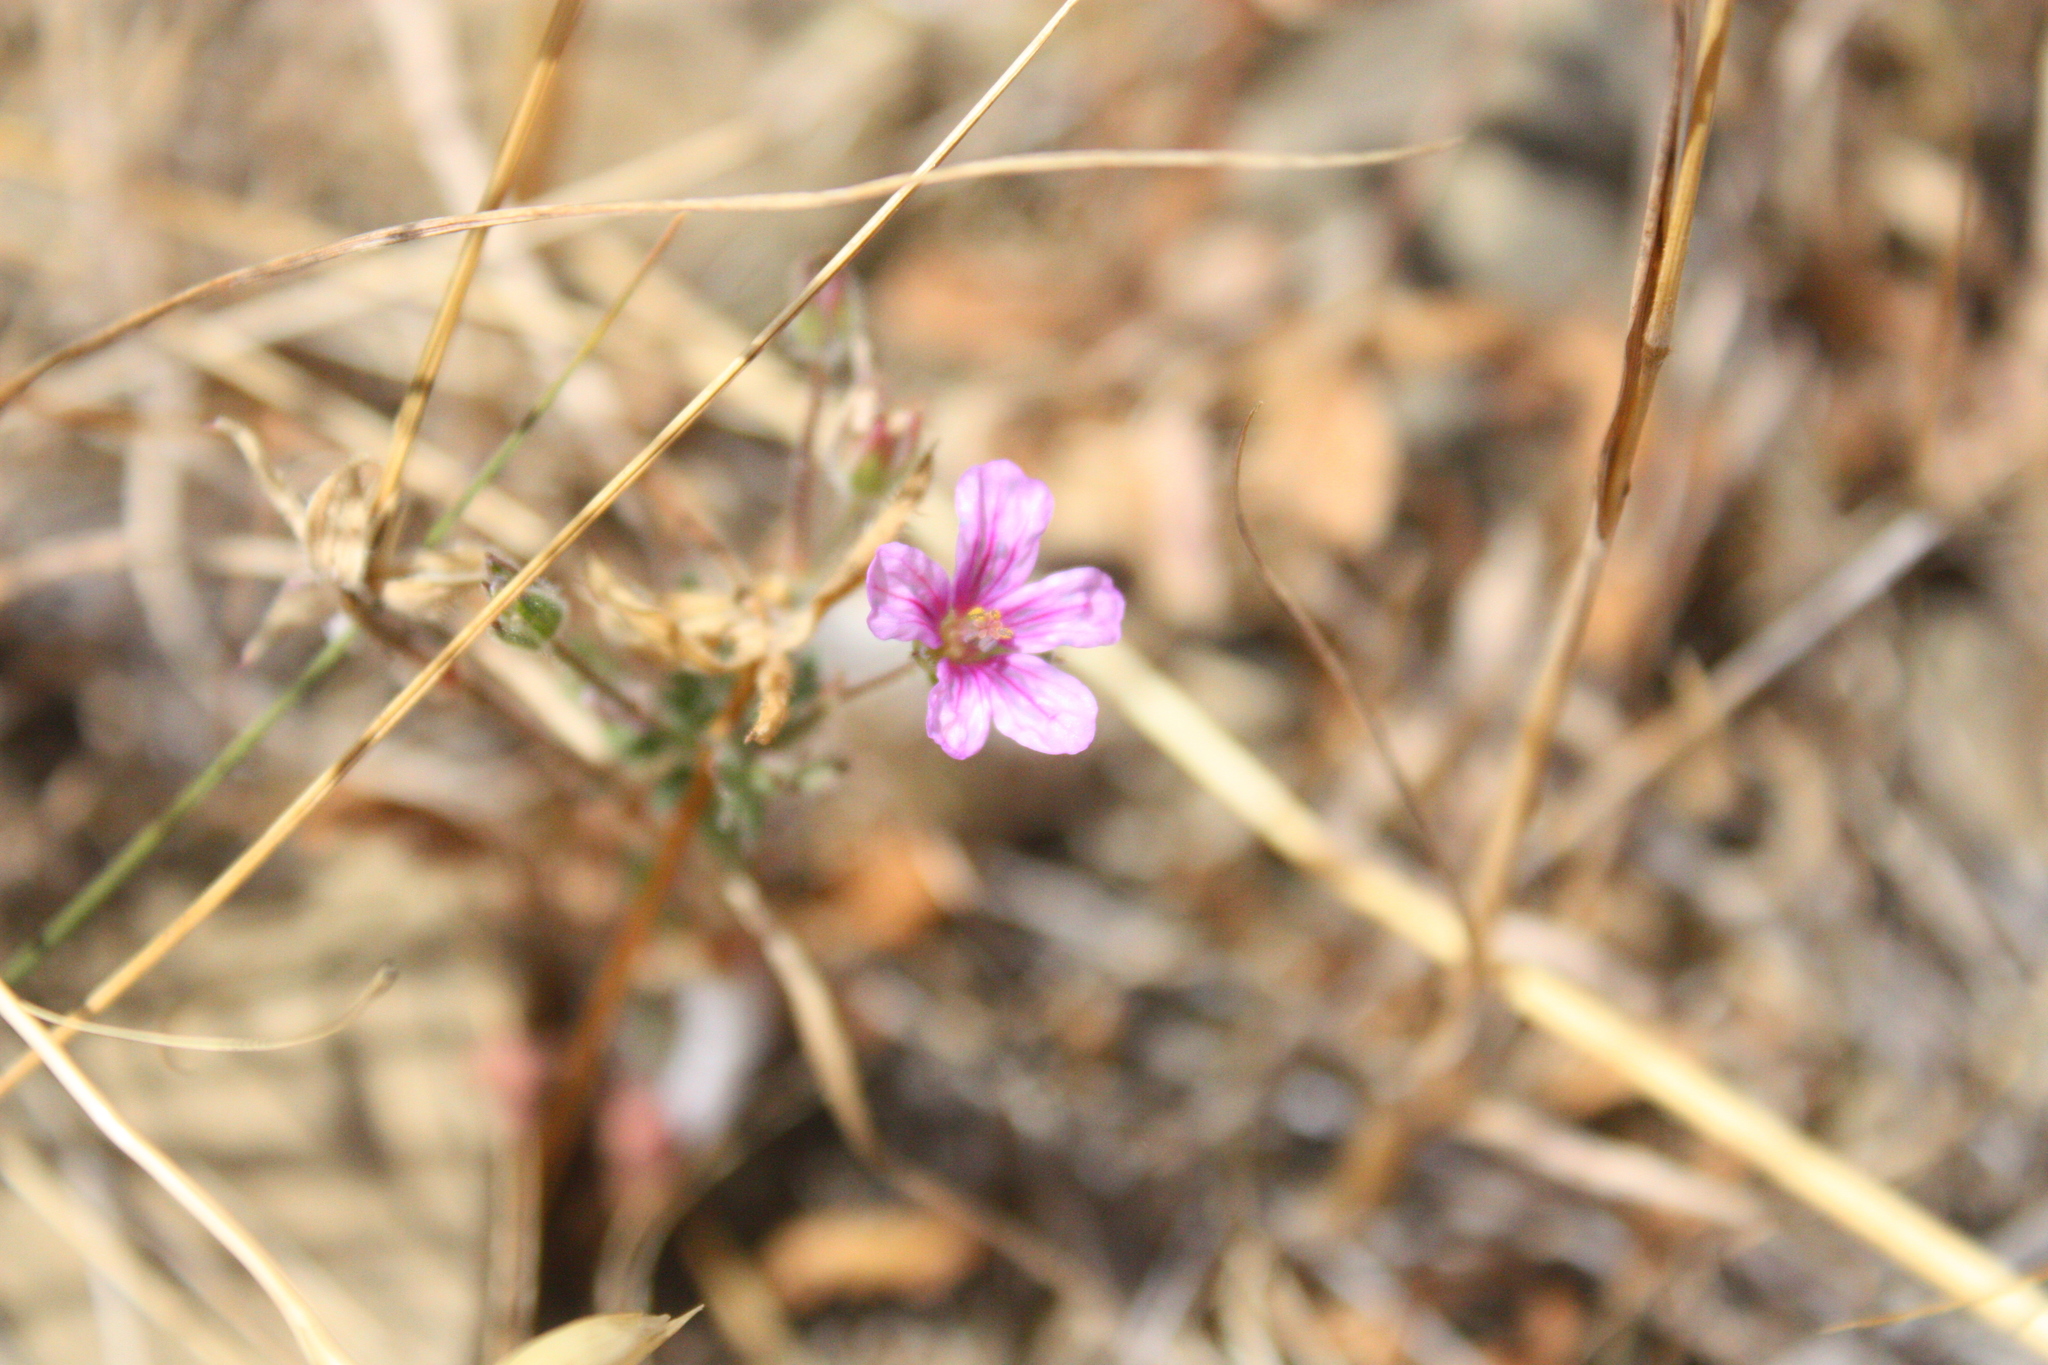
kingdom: Plantae
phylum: Tracheophyta
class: Magnoliopsida
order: Geraniales
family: Geraniaceae
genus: Erodium
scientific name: Erodium botrys
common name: Mediterranean stork's-bill
